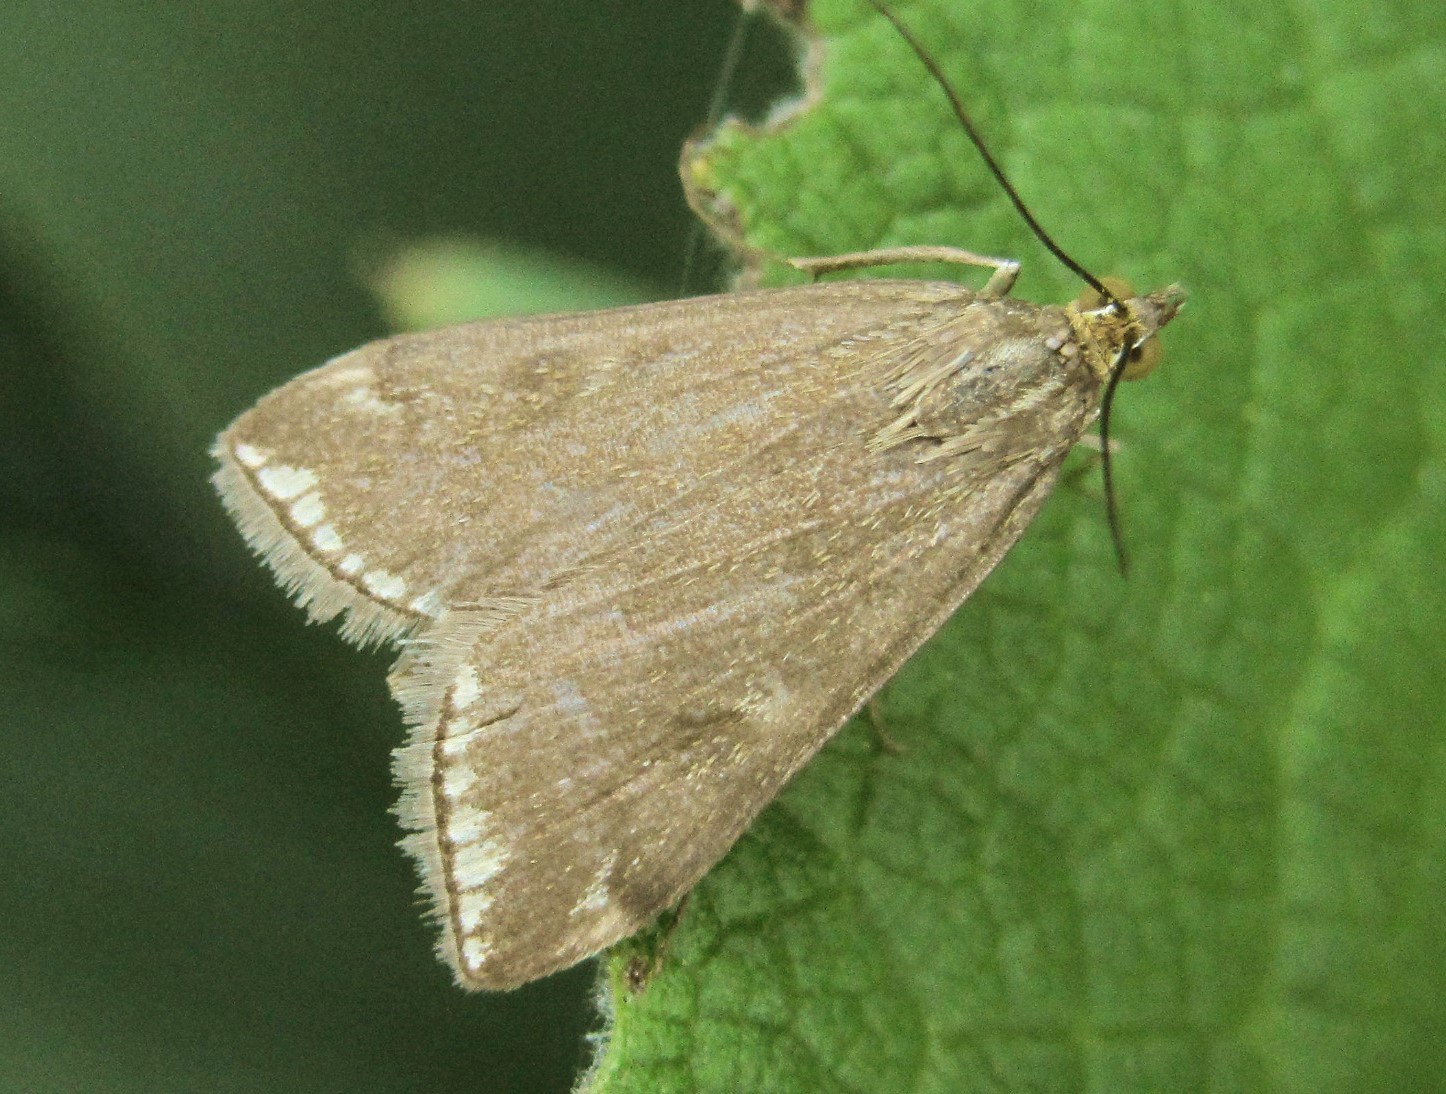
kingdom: Animalia
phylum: Arthropoda
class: Insecta
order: Lepidoptera
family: Crambidae
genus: Loxostege
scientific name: Loxostege sticticalis
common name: Crambid moth
